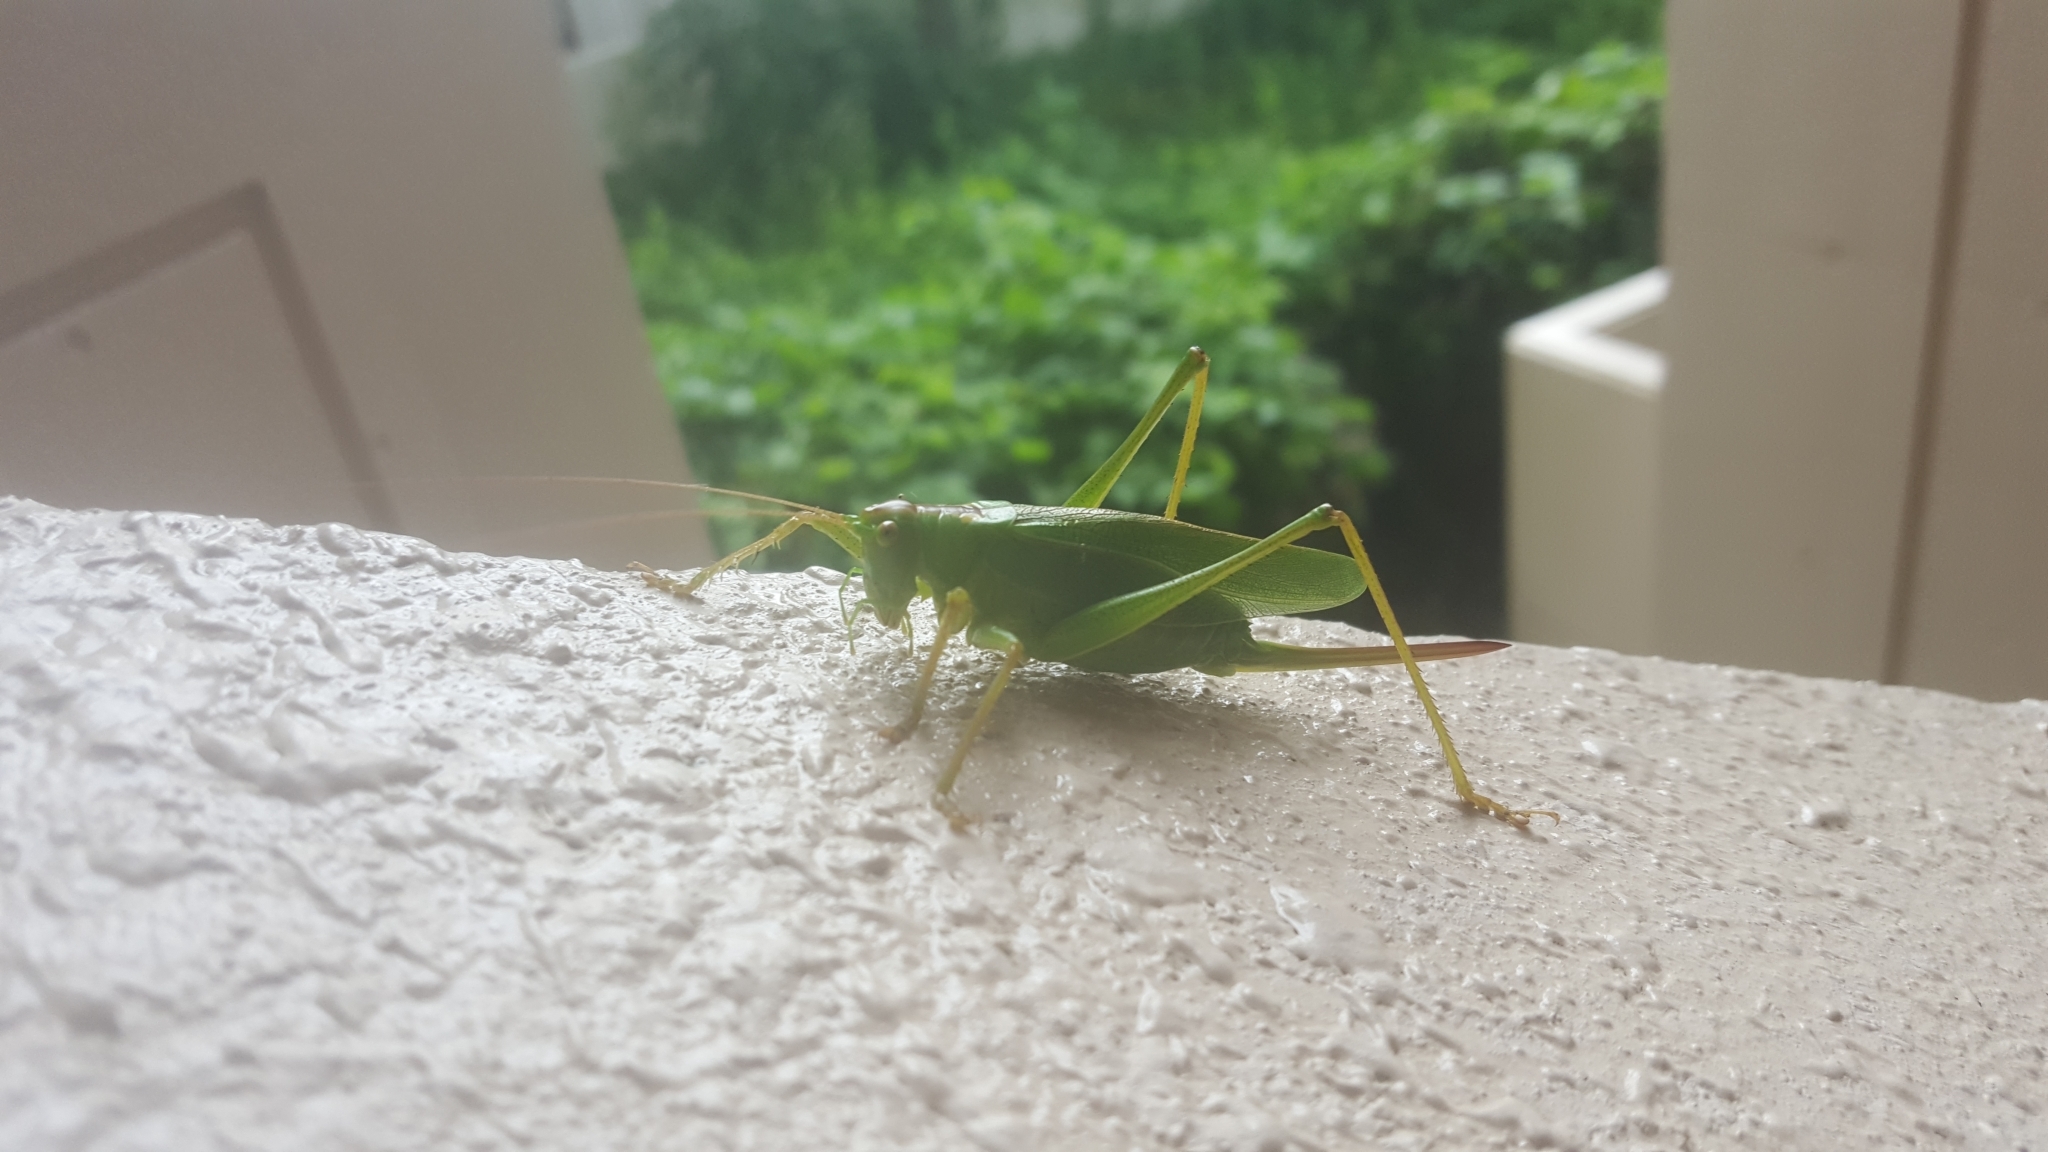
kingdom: Animalia
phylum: Arthropoda
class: Insecta
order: Orthoptera
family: Tettigoniidae
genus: Tettigonia
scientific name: Tettigonia orientalis
